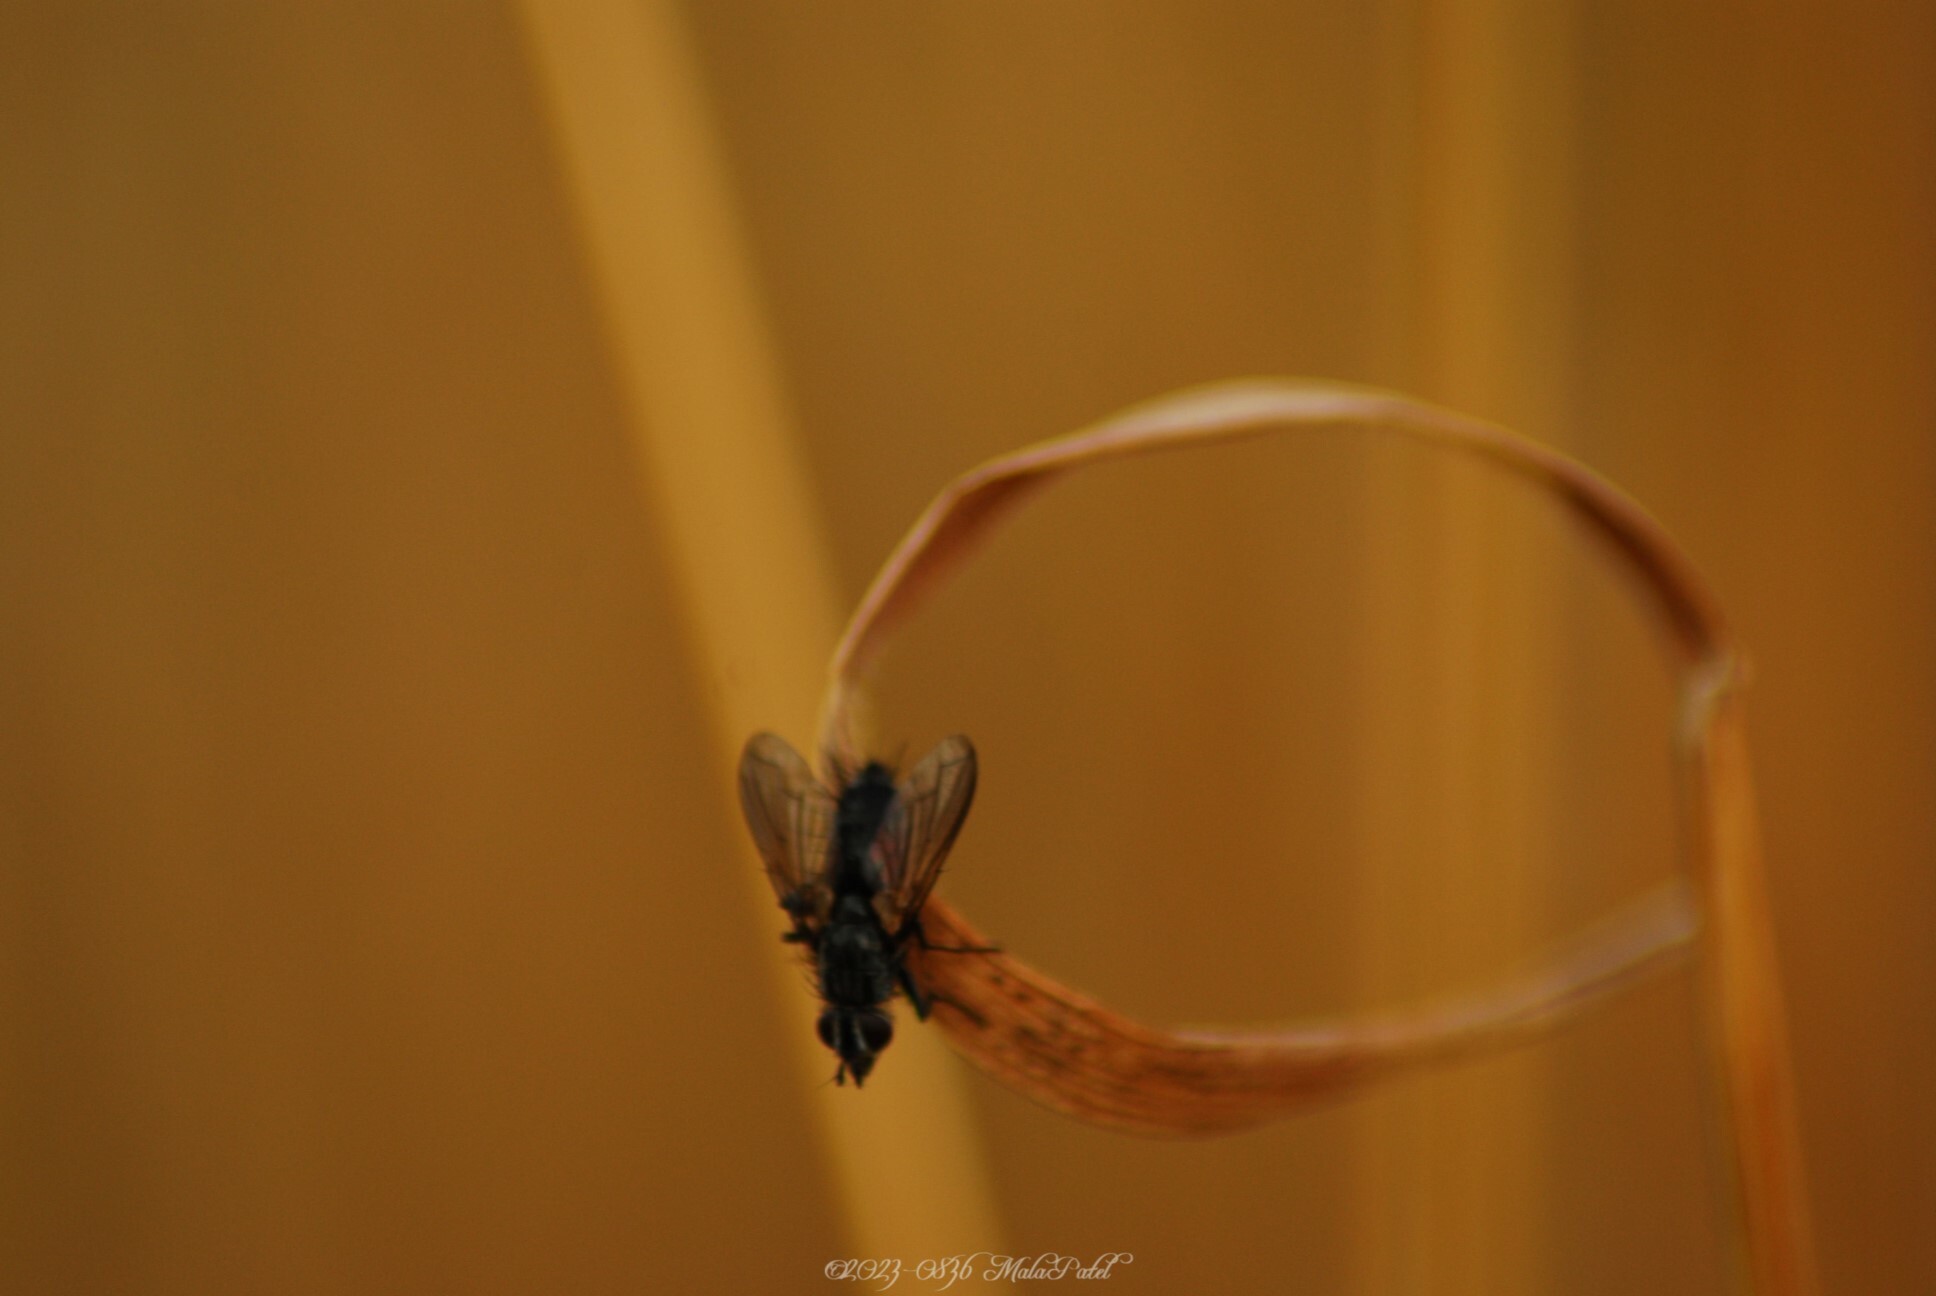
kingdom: Animalia
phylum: Arthropoda
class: Insecta
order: Diptera
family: Tachinidae
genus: Eriothrix
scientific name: Eriothrix rufomaculatus
